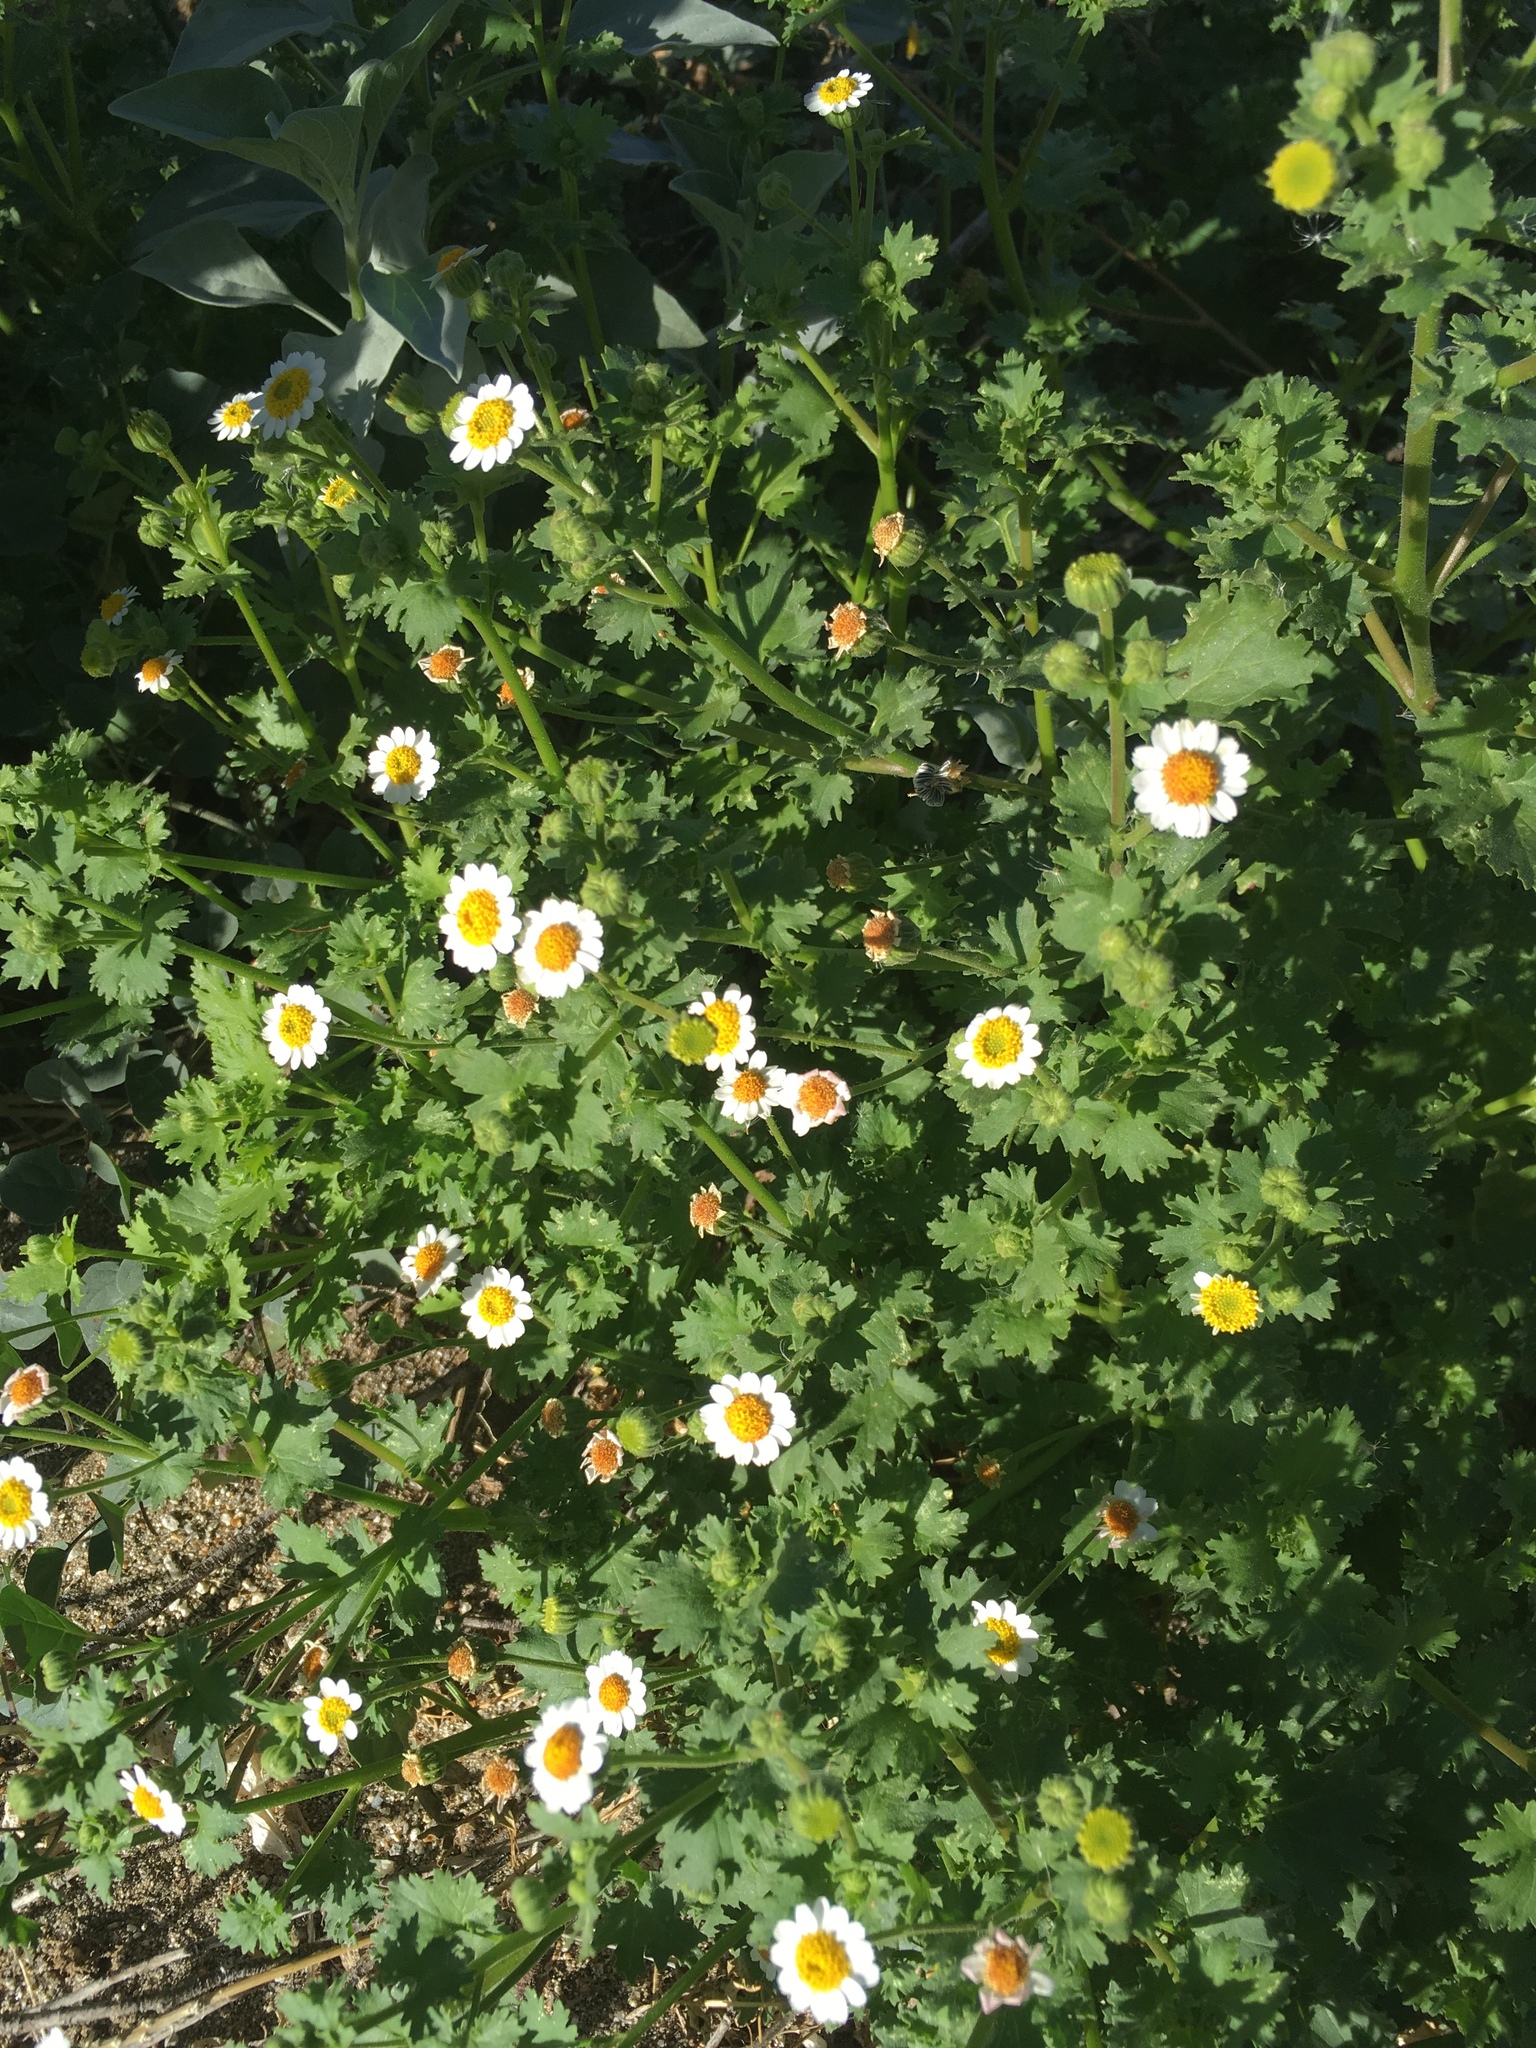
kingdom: Plantae
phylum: Tracheophyta
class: Magnoliopsida
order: Asterales
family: Asteraceae
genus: Laphamia
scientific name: Laphamia emoryi
